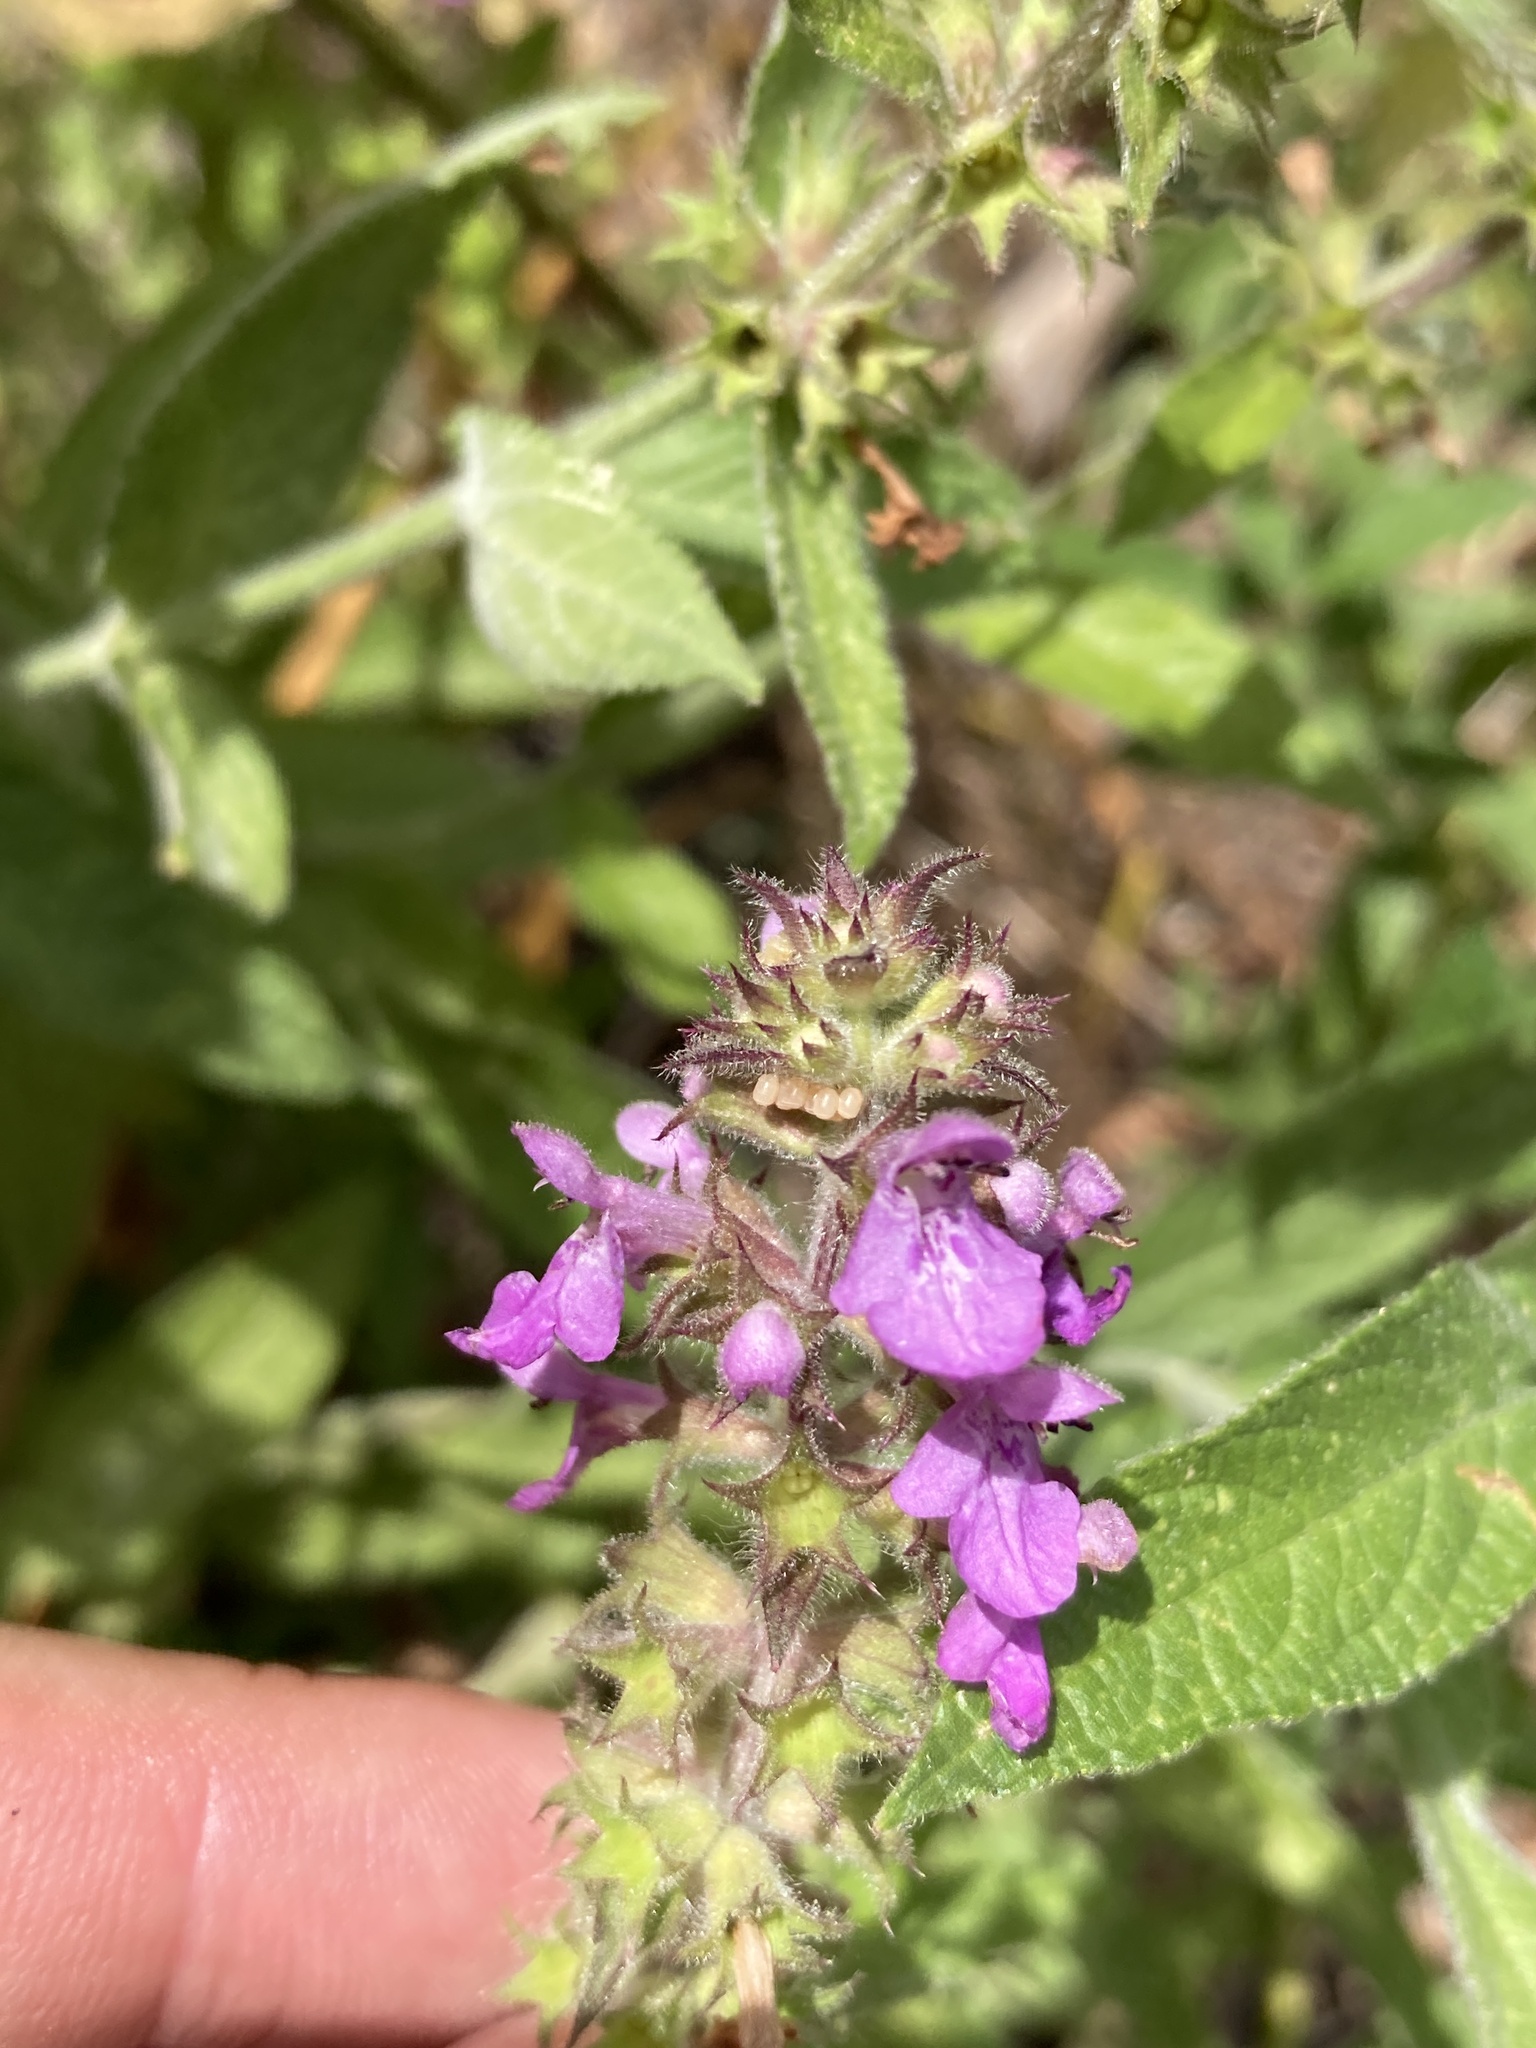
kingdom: Plantae
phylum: Tracheophyta
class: Magnoliopsida
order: Lamiales
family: Lamiaceae
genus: Stachys
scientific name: Stachys palustris
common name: Marsh woundwort
